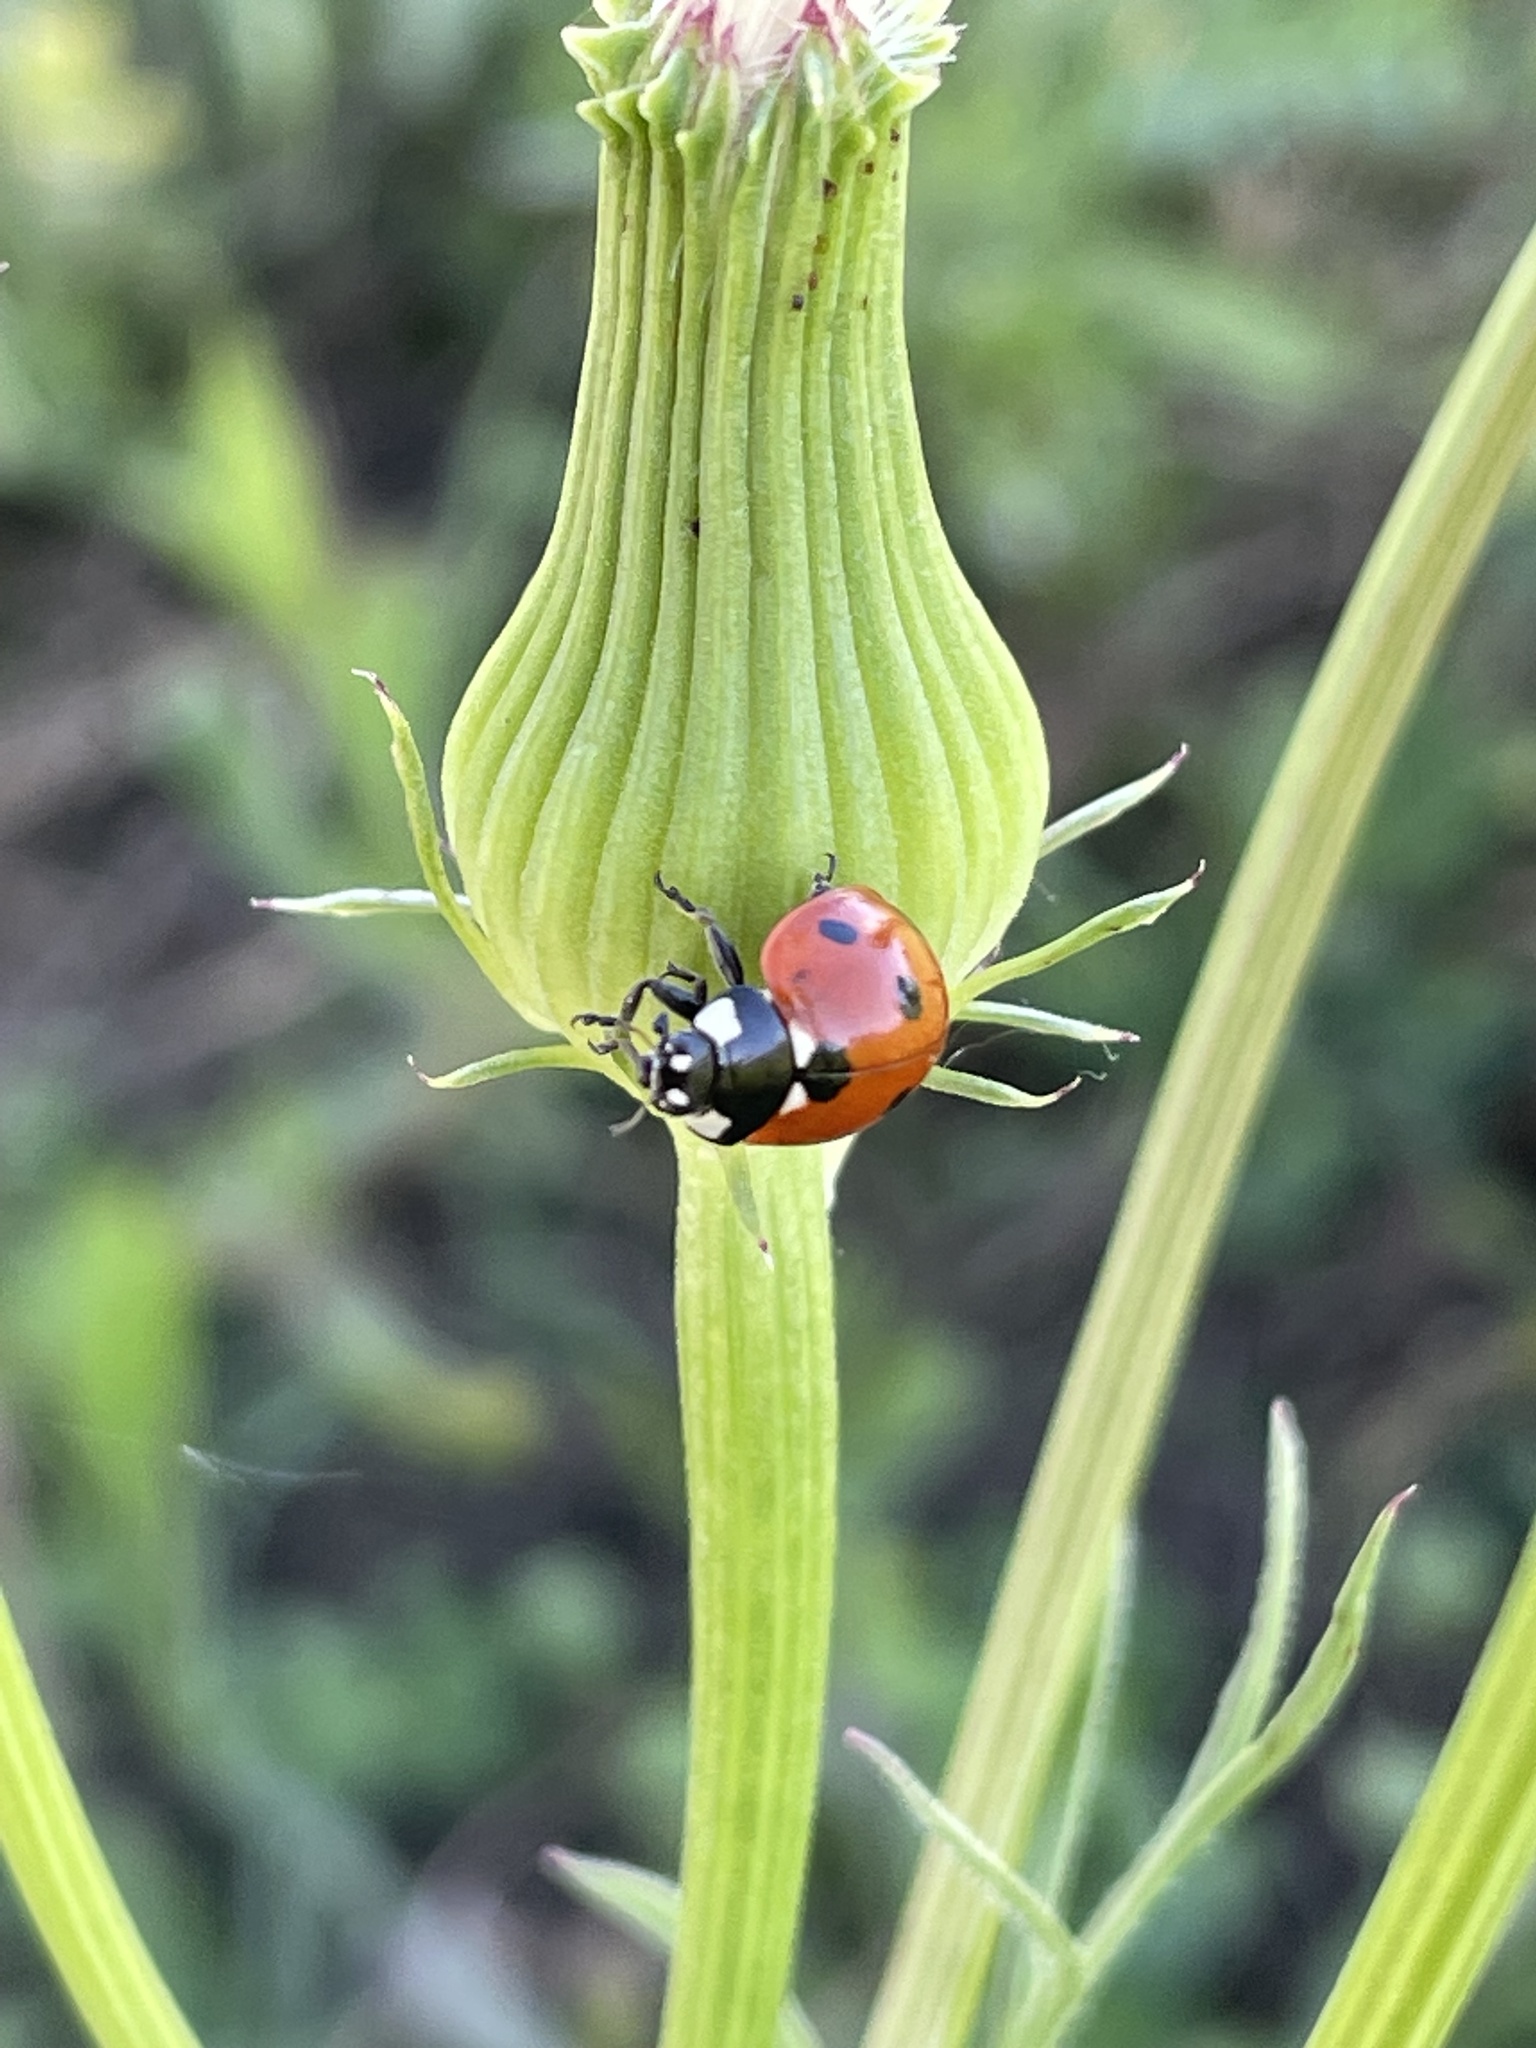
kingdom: Animalia
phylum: Arthropoda
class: Insecta
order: Coleoptera
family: Coccinellidae
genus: Coccinella
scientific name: Coccinella septempunctata
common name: Sevenspotted lady beetle
